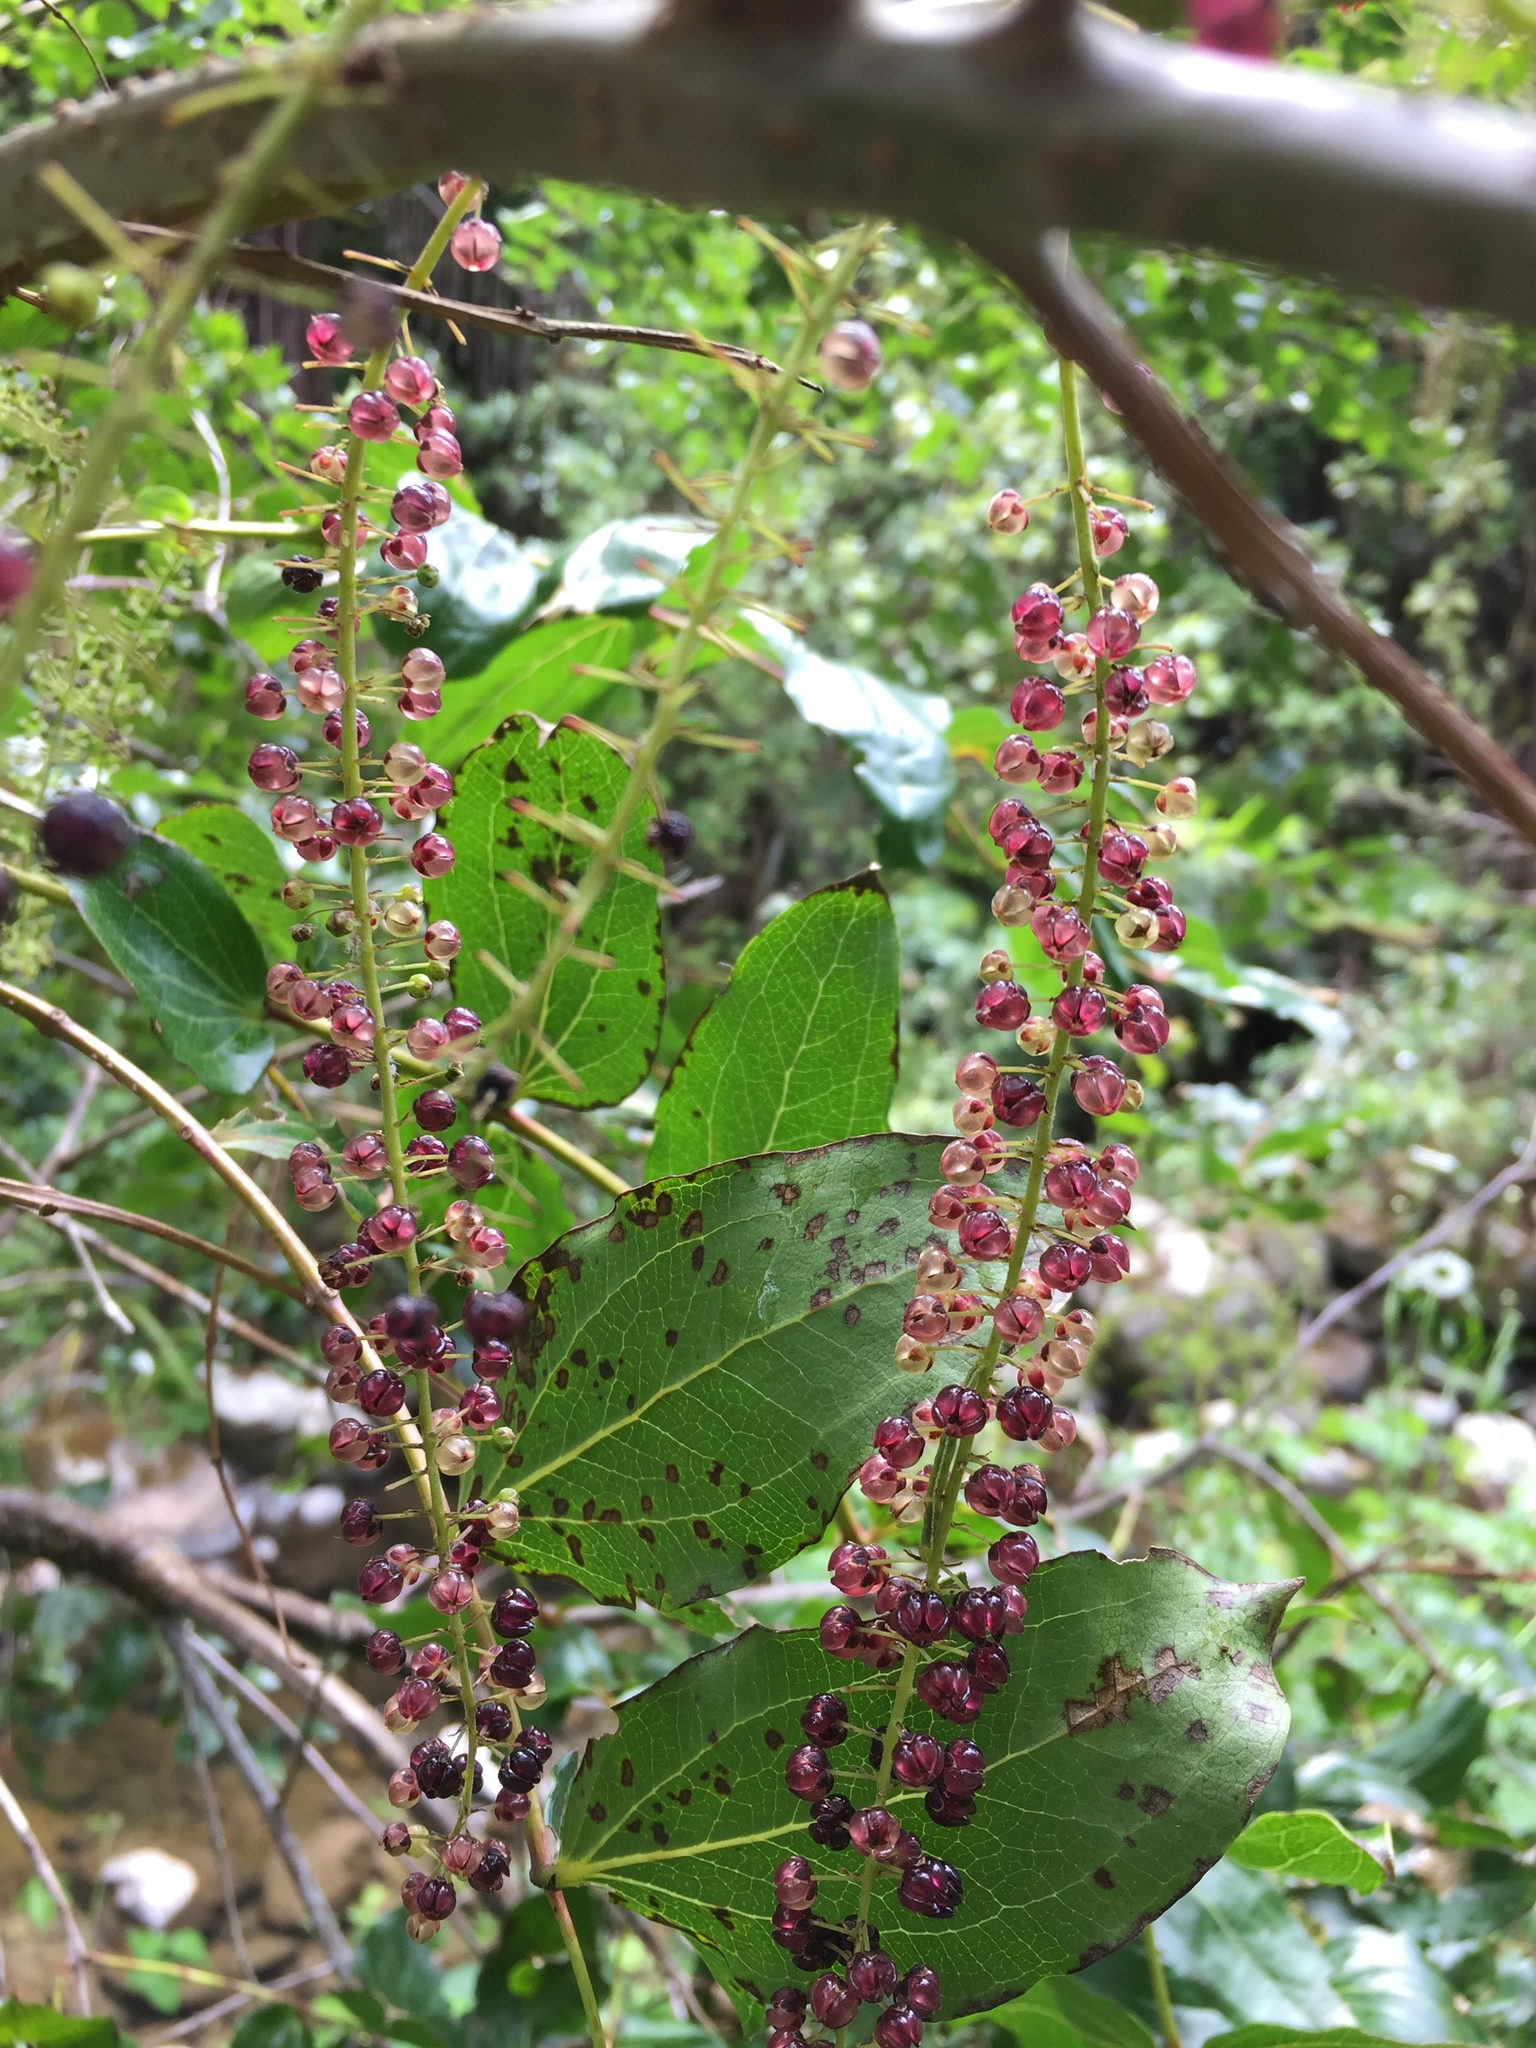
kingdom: Plantae
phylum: Tracheophyta
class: Magnoliopsida
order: Cucurbitales
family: Coriariaceae
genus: Coriaria
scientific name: Coriaria arborea
